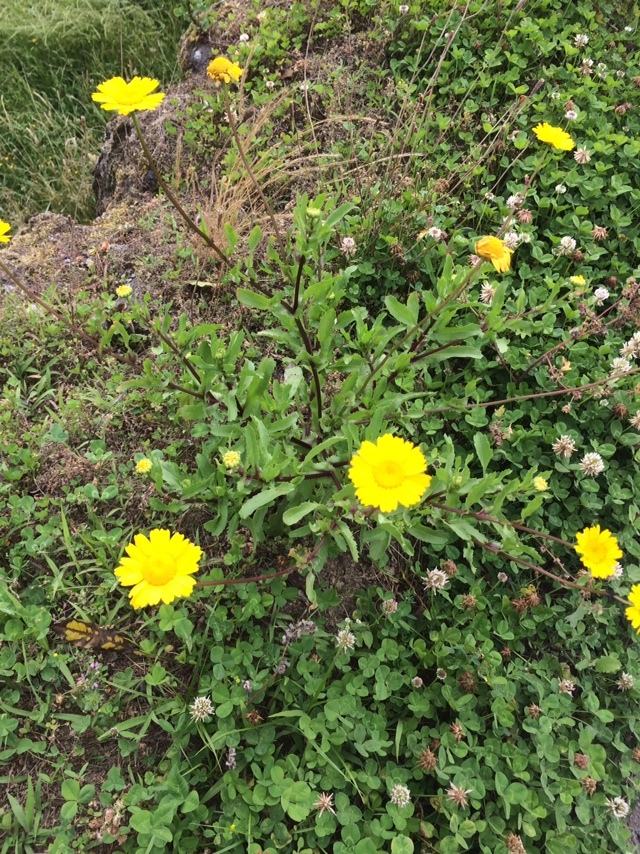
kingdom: Plantae
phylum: Tracheophyta
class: Magnoliopsida
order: Asterales
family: Asteraceae
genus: Coleostephus
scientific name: Coleostephus myconis
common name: Mediterranean marigold
